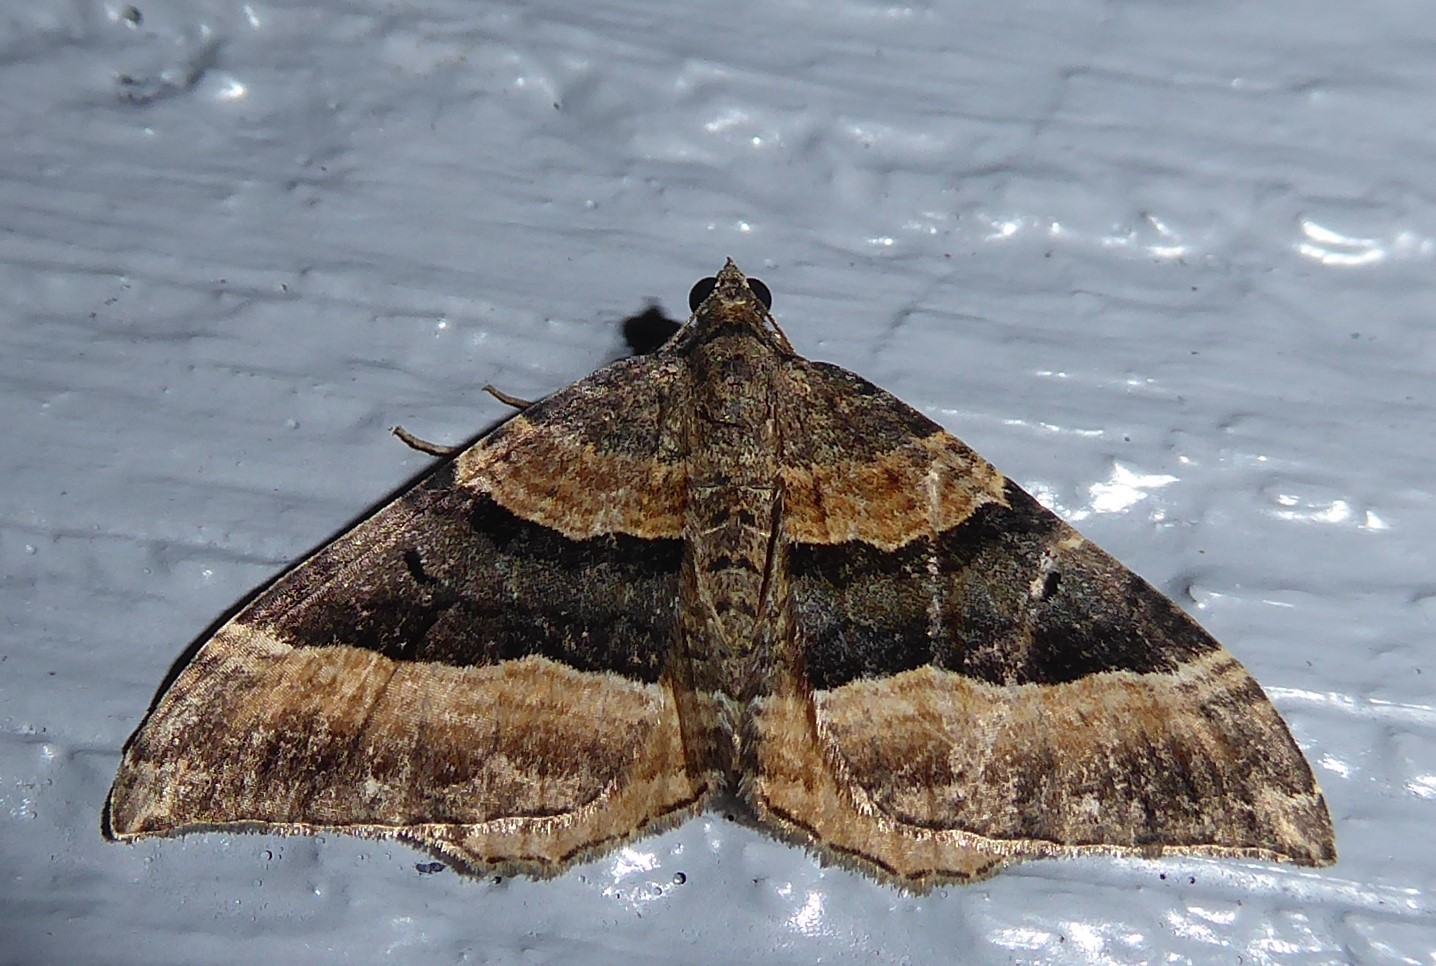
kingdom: Animalia
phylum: Arthropoda
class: Insecta
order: Lepidoptera
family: Geometridae
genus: Hydriomena
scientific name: Hydriomena deltoidata
